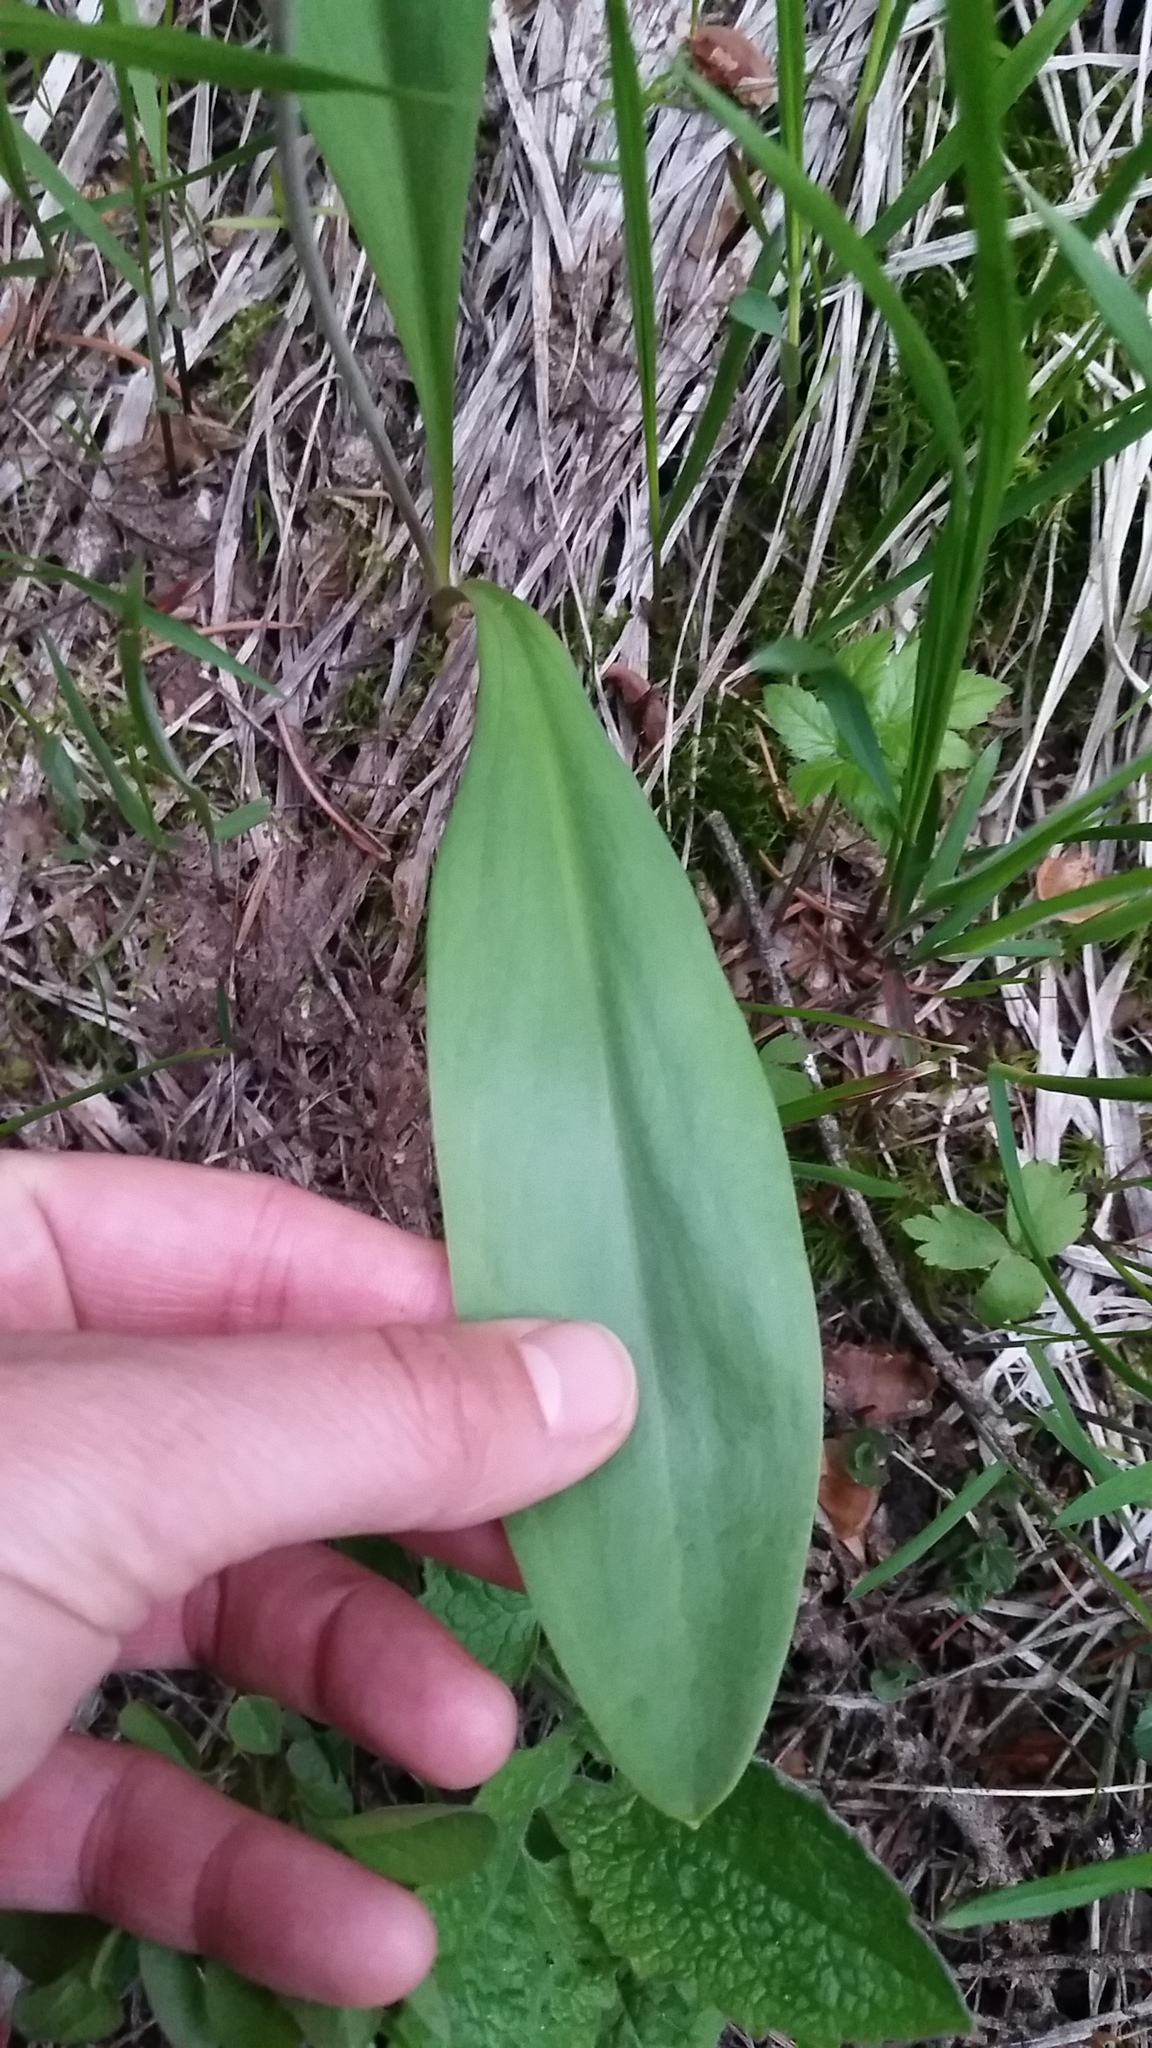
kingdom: Plantae
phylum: Tracheophyta
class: Liliopsida
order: Liliales
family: Liliaceae
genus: Erythronium
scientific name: Erythronium grandiflorum
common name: Avalanche-lily
